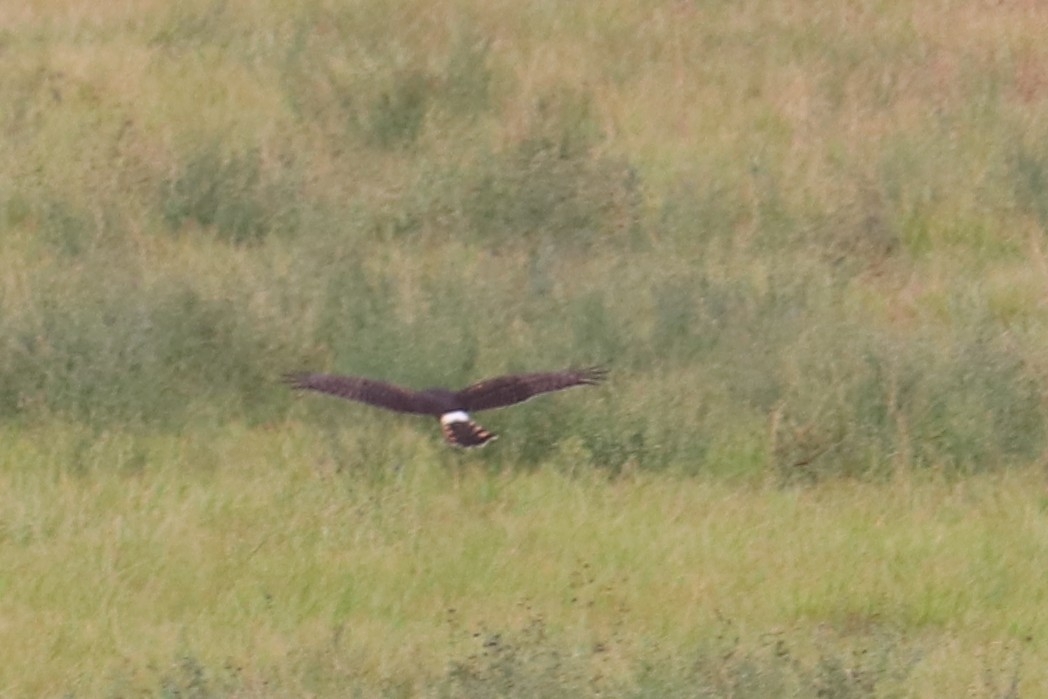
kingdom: Animalia
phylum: Chordata
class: Aves
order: Accipitriformes
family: Accipitridae
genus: Circus
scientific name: Circus cyaneus
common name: Hen harrier
